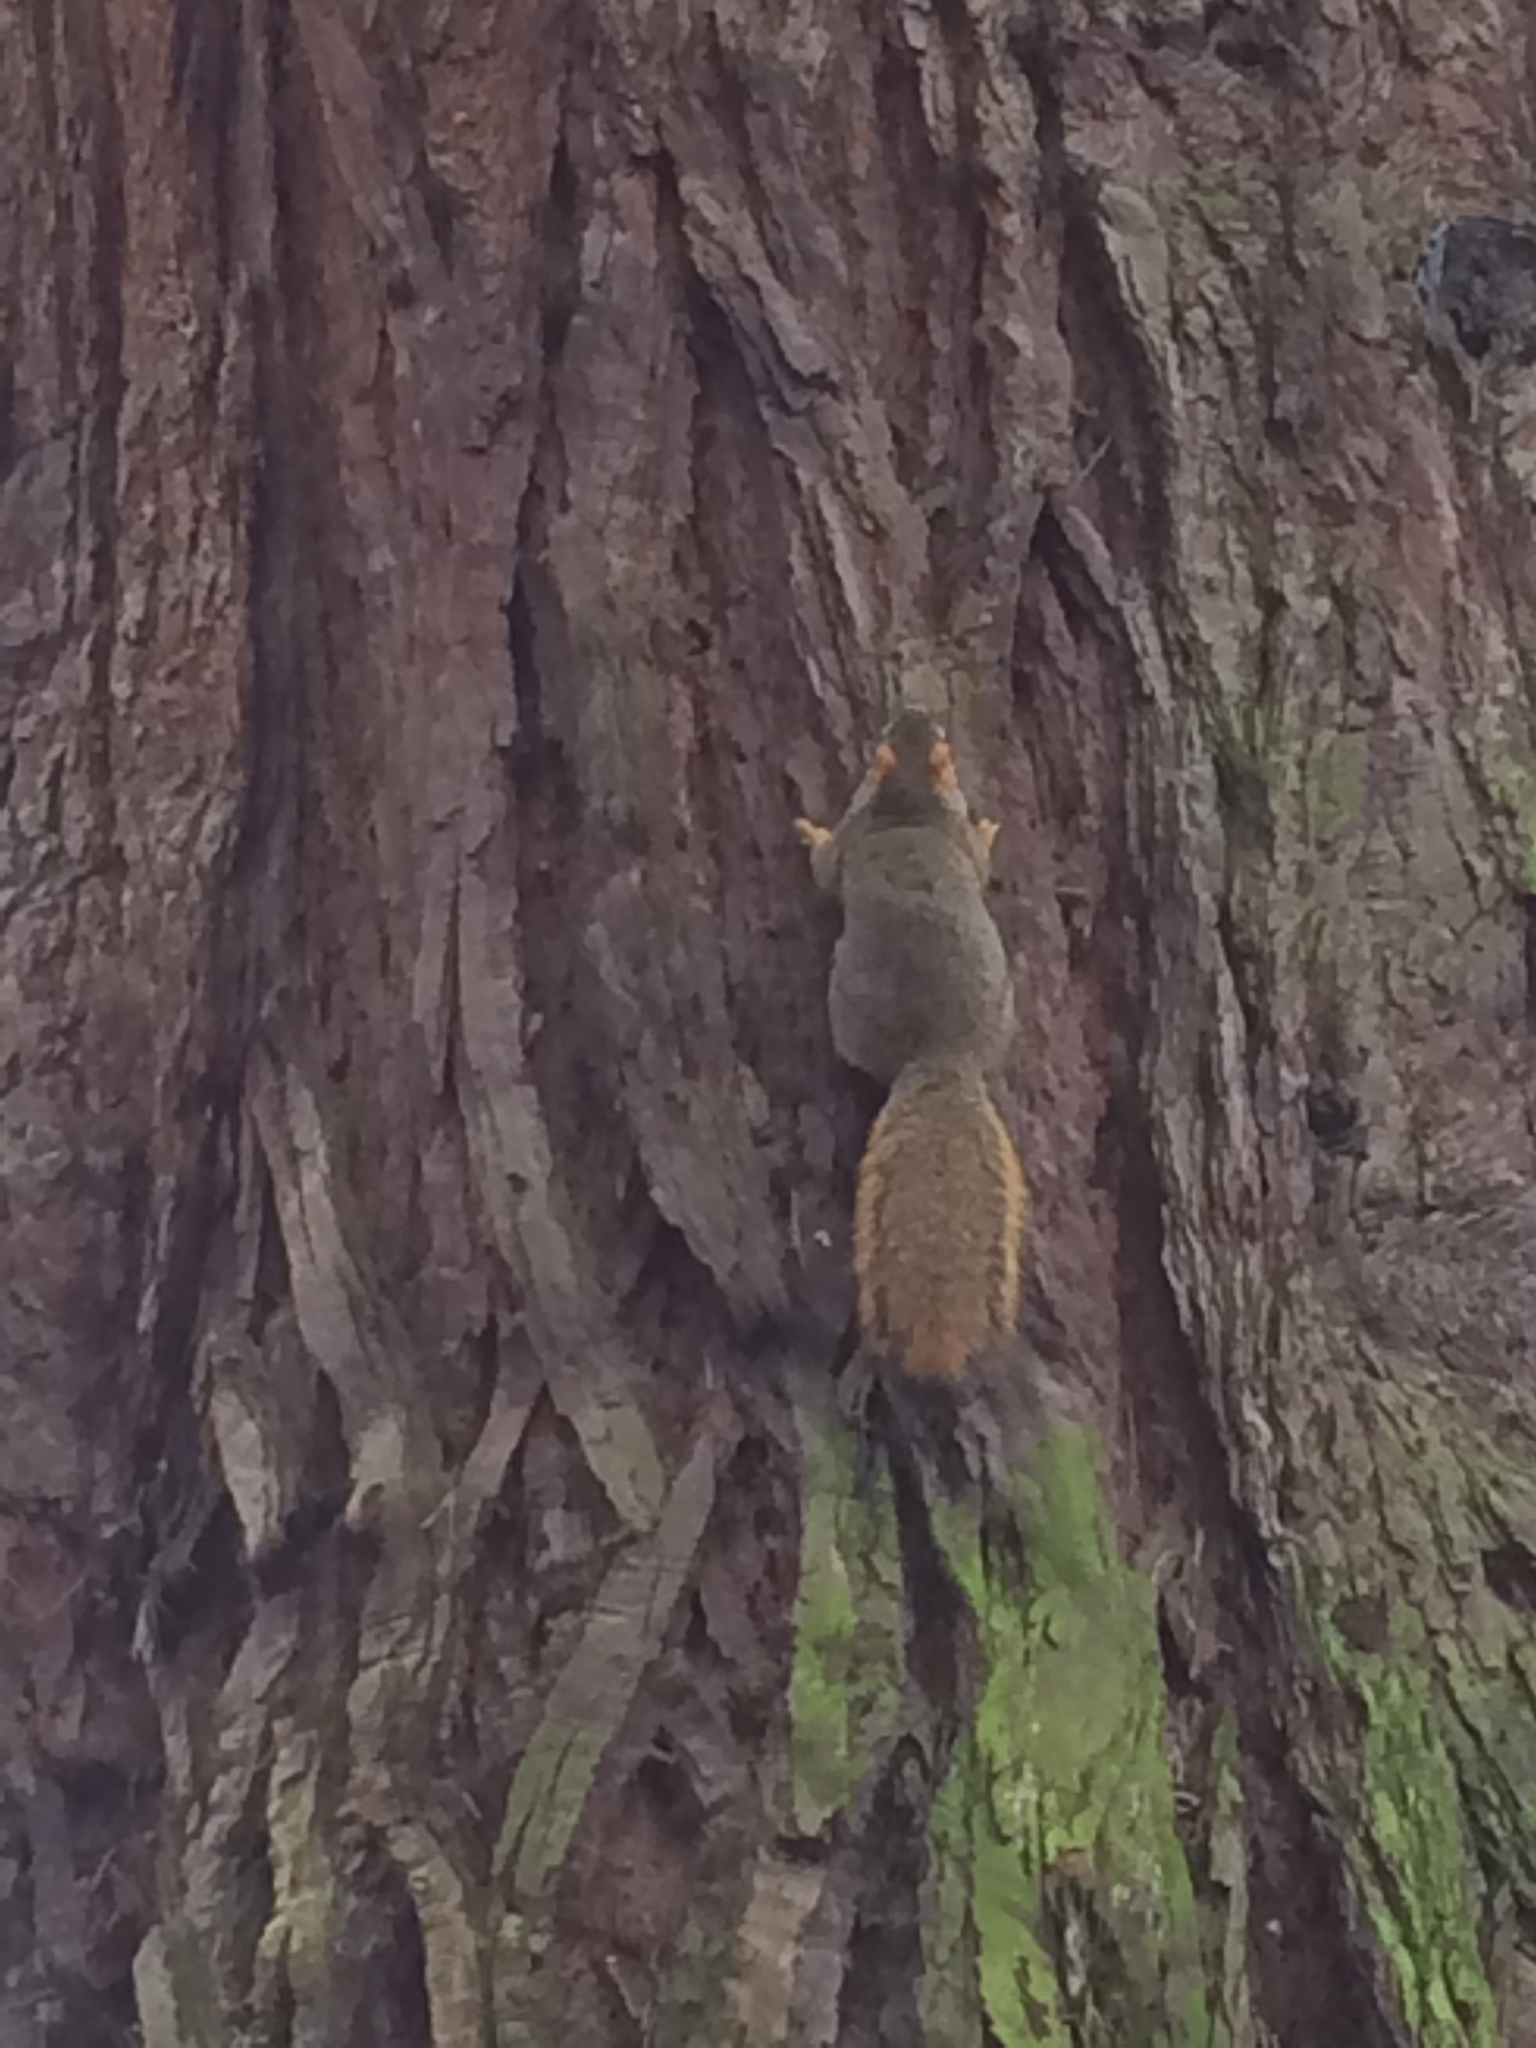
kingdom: Animalia
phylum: Chordata
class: Mammalia
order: Rodentia
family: Sciuridae
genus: Sciurus
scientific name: Sciurus niger
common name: Fox squirrel
